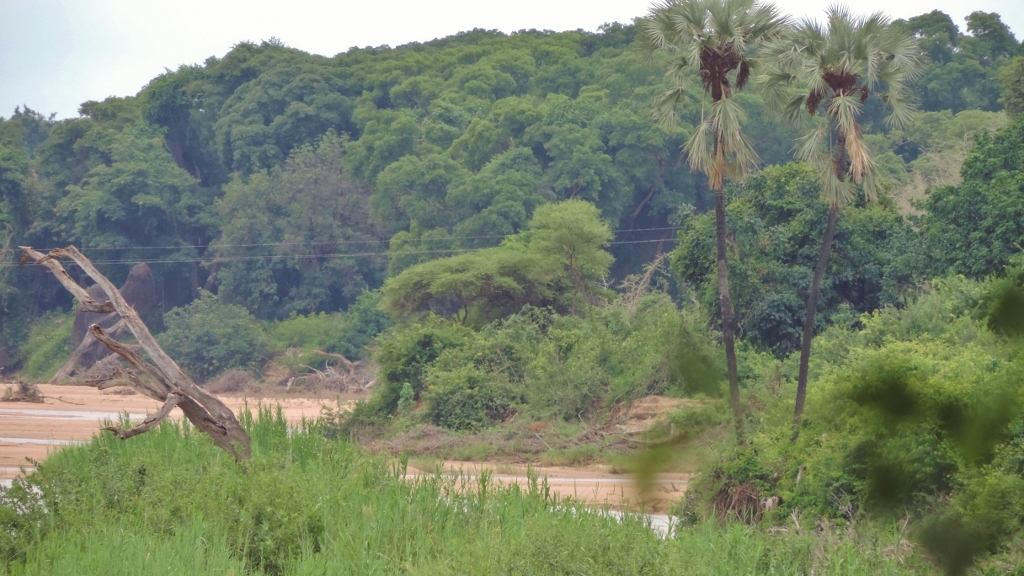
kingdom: Plantae
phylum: Tracheophyta
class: Liliopsida
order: Arecales
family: Arecaceae
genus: Hyphaene
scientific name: Hyphaene petersiana
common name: African ivory nut palm
